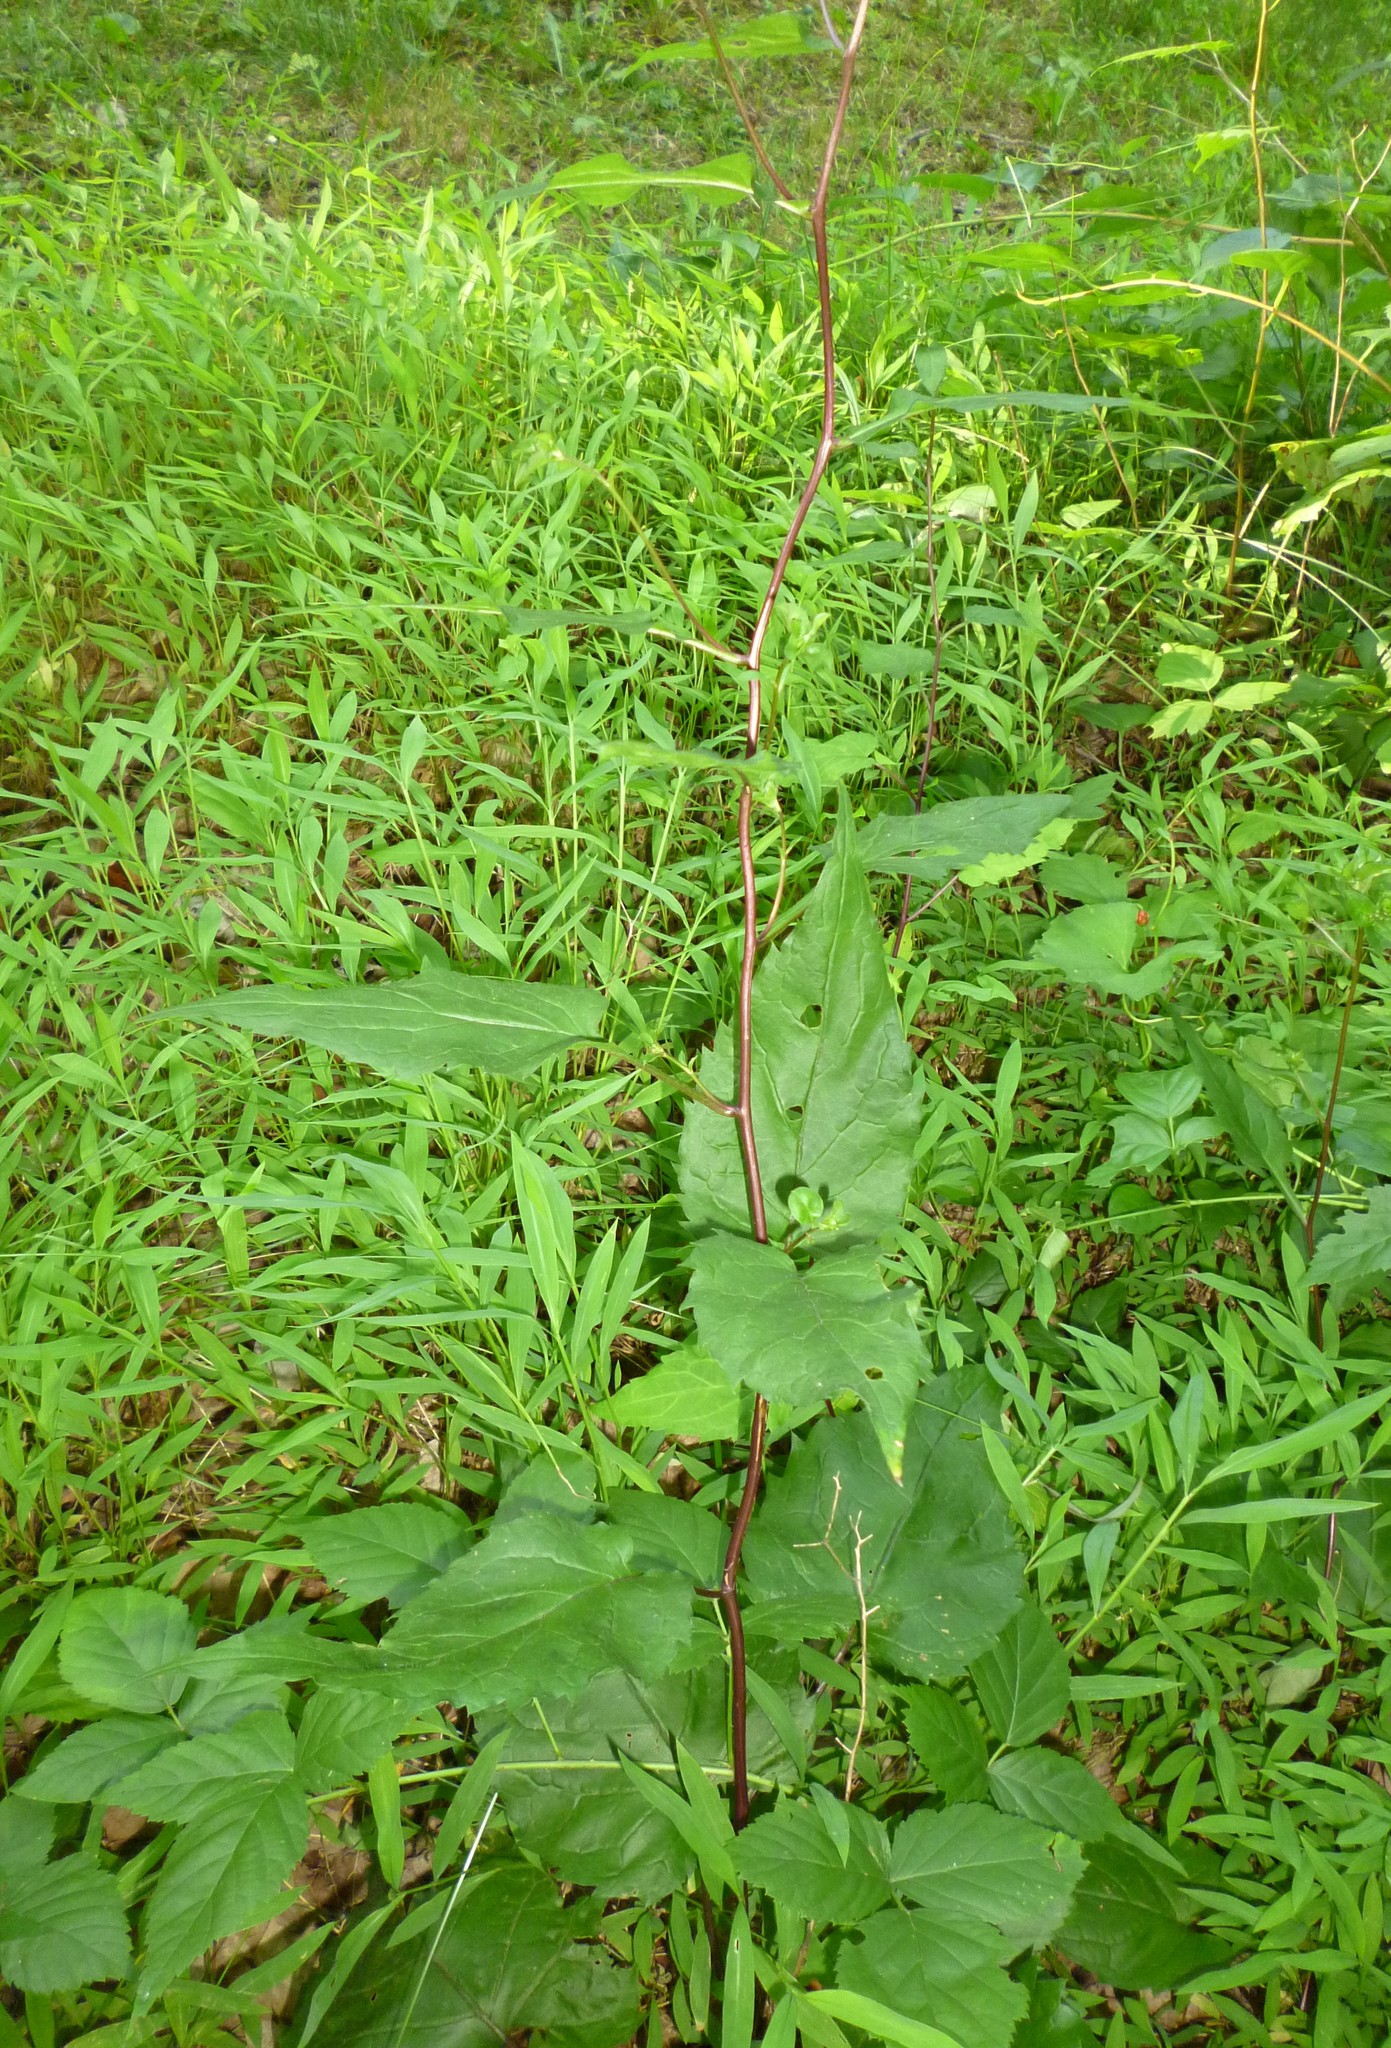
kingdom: Plantae
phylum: Tracheophyta
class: Magnoliopsida
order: Asterales
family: Asteraceae
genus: Eurybia
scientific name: Eurybia divaricata
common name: White wood aster
